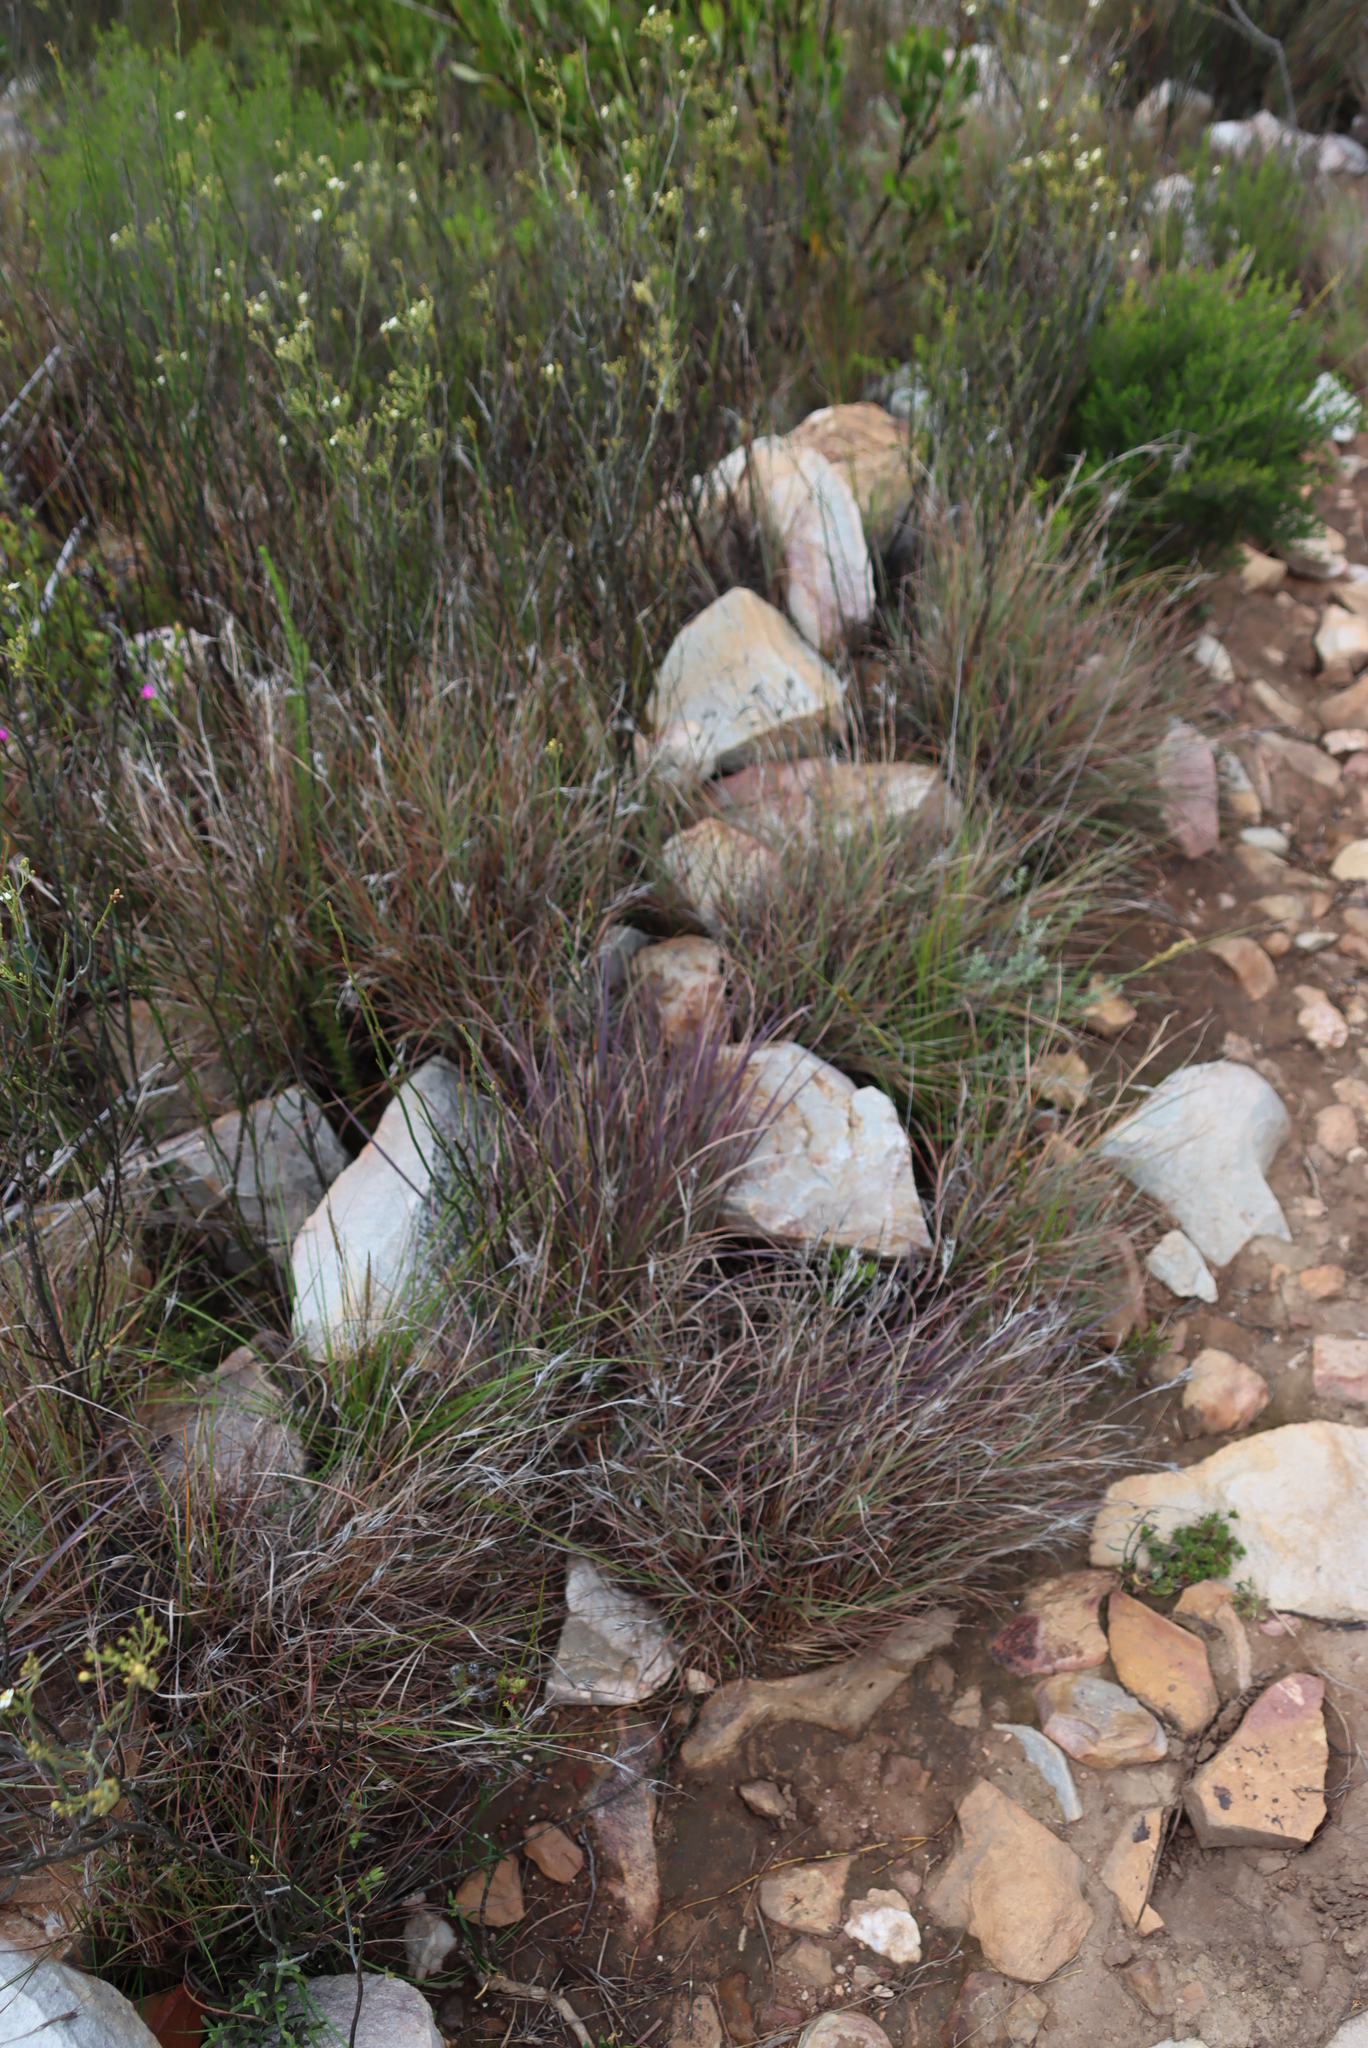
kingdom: Plantae
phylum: Tracheophyta
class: Liliopsida
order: Poales
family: Poaceae
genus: Themeda
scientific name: Themeda triandra
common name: Kangaroo grass
